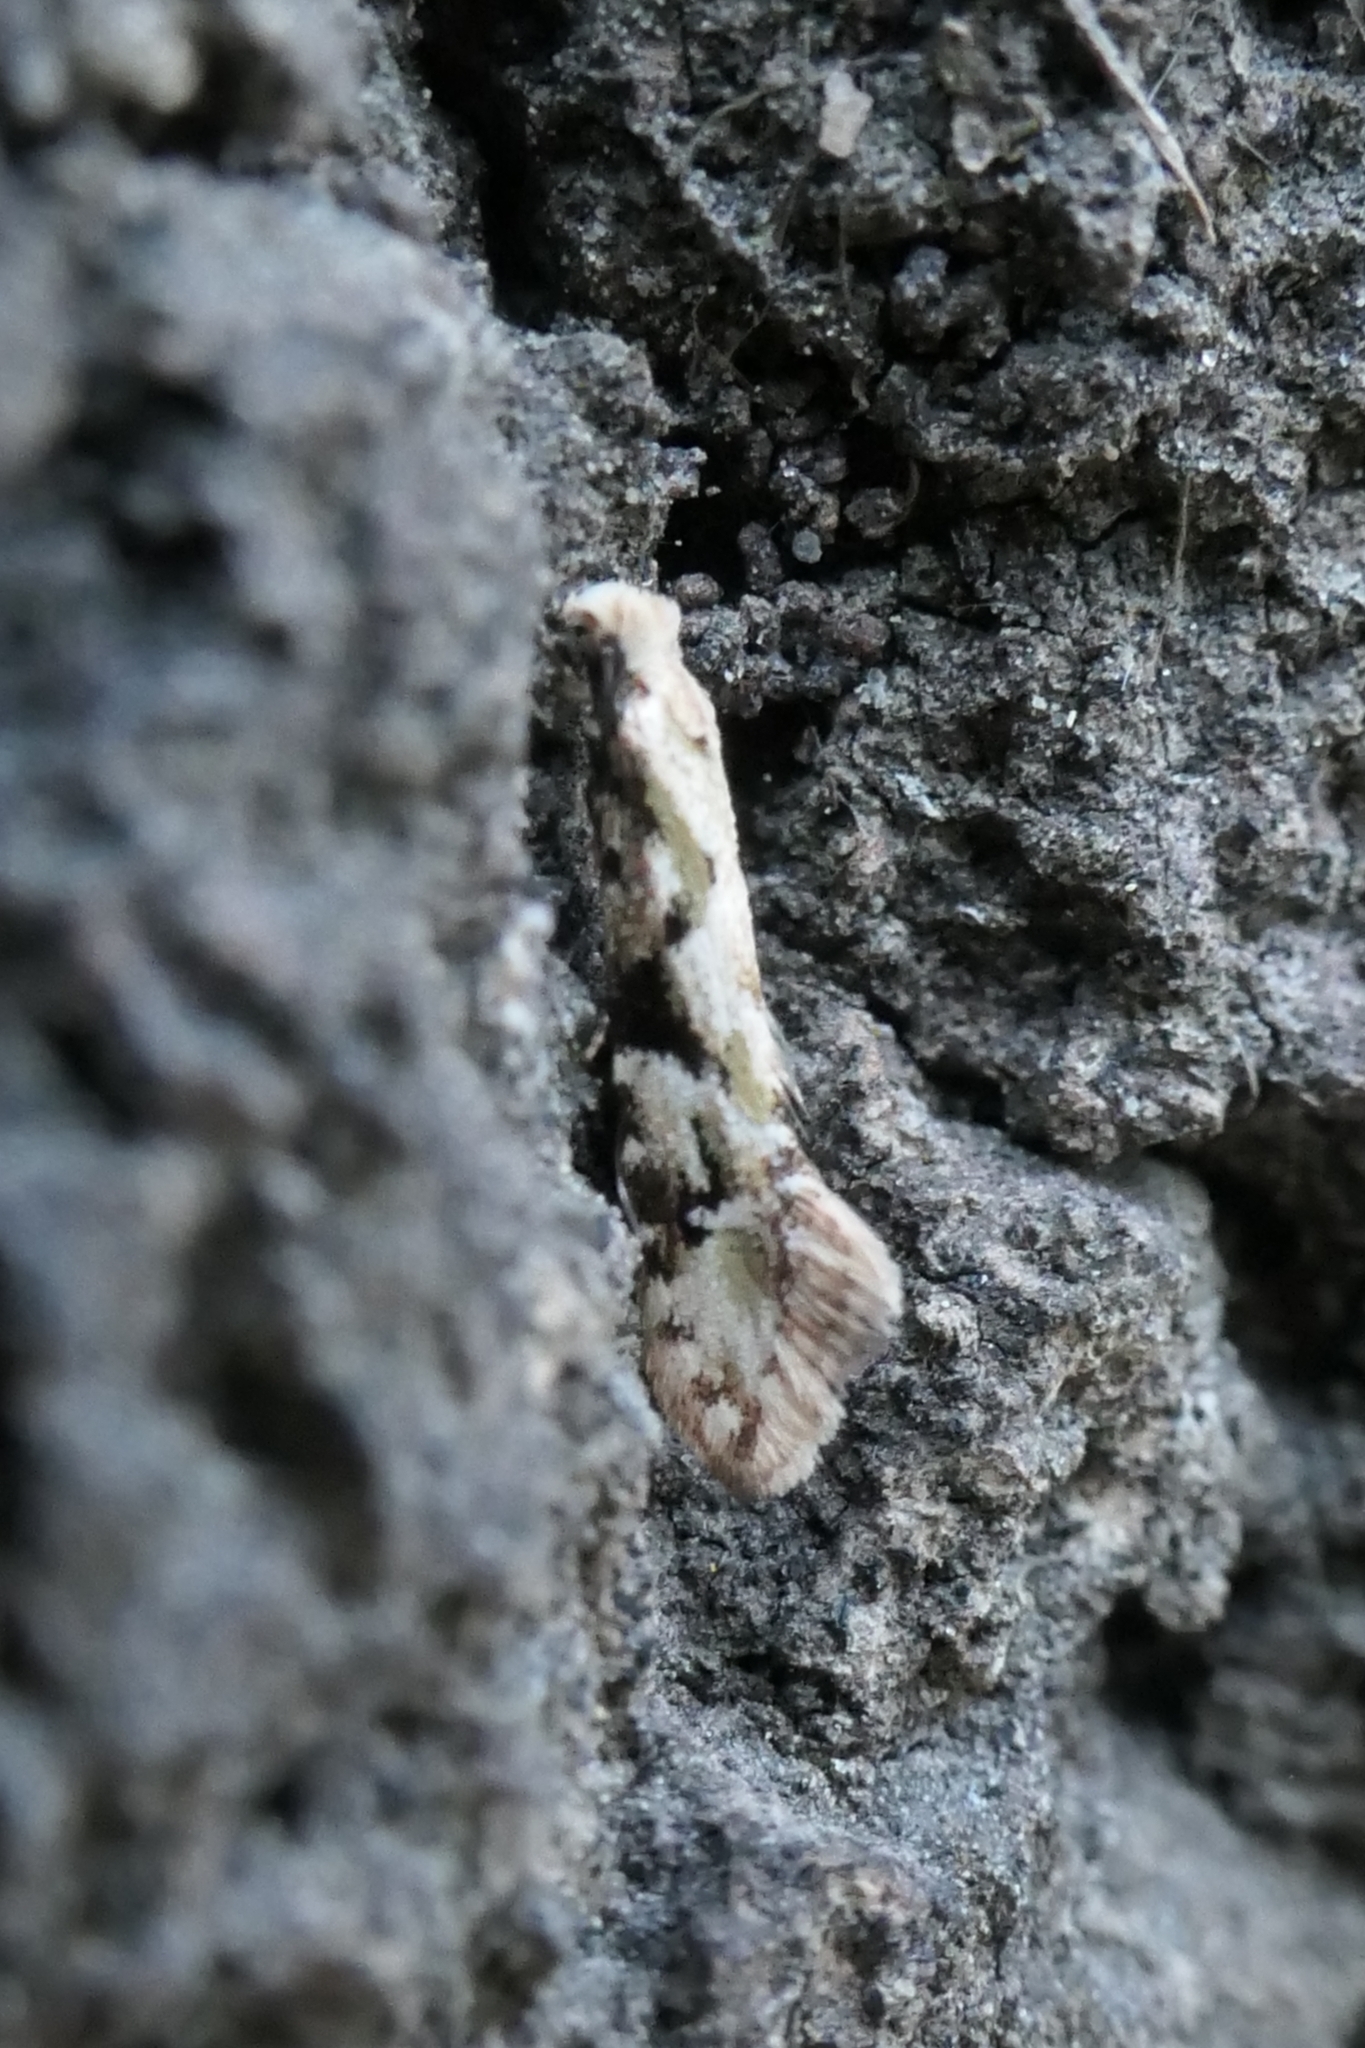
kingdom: Animalia
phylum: Arthropoda
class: Insecta
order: Lepidoptera
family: Tineidae
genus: Crypsitricha
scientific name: Crypsitricha mesotypa
